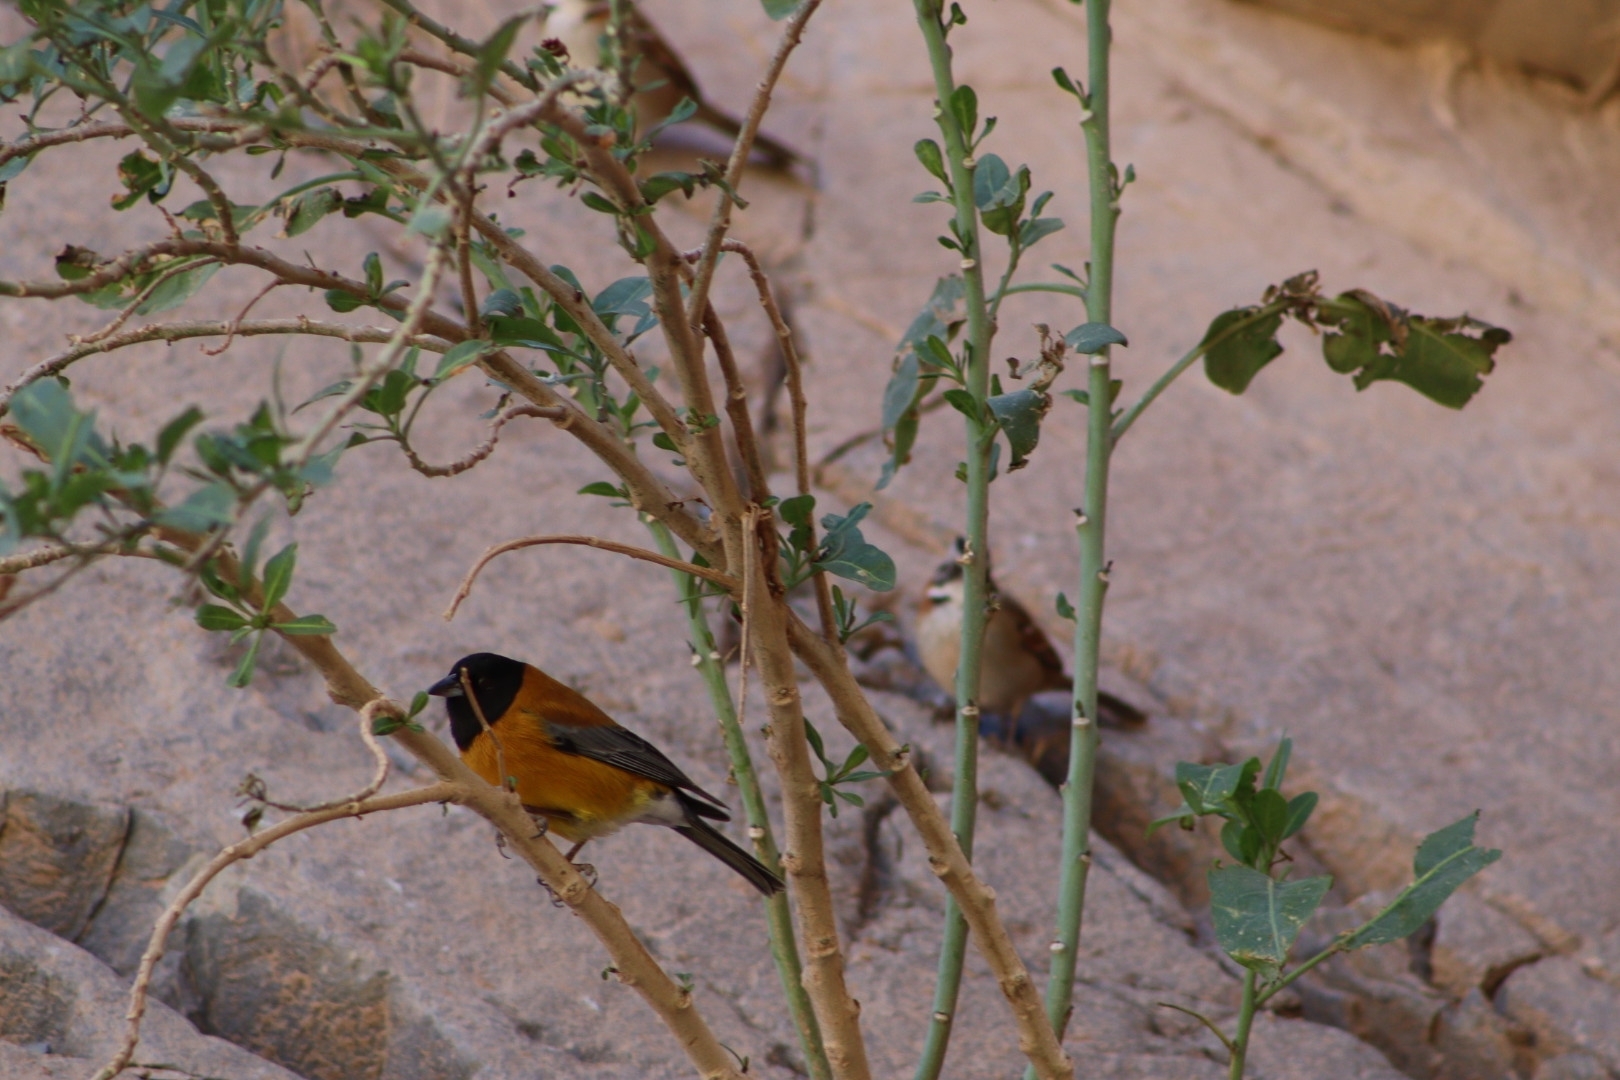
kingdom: Animalia
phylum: Chordata
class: Aves
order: Passeriformes
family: Thraupidae
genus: Phrygilus
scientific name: Phrygilus atriceps
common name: Black-hooded sierra finch
